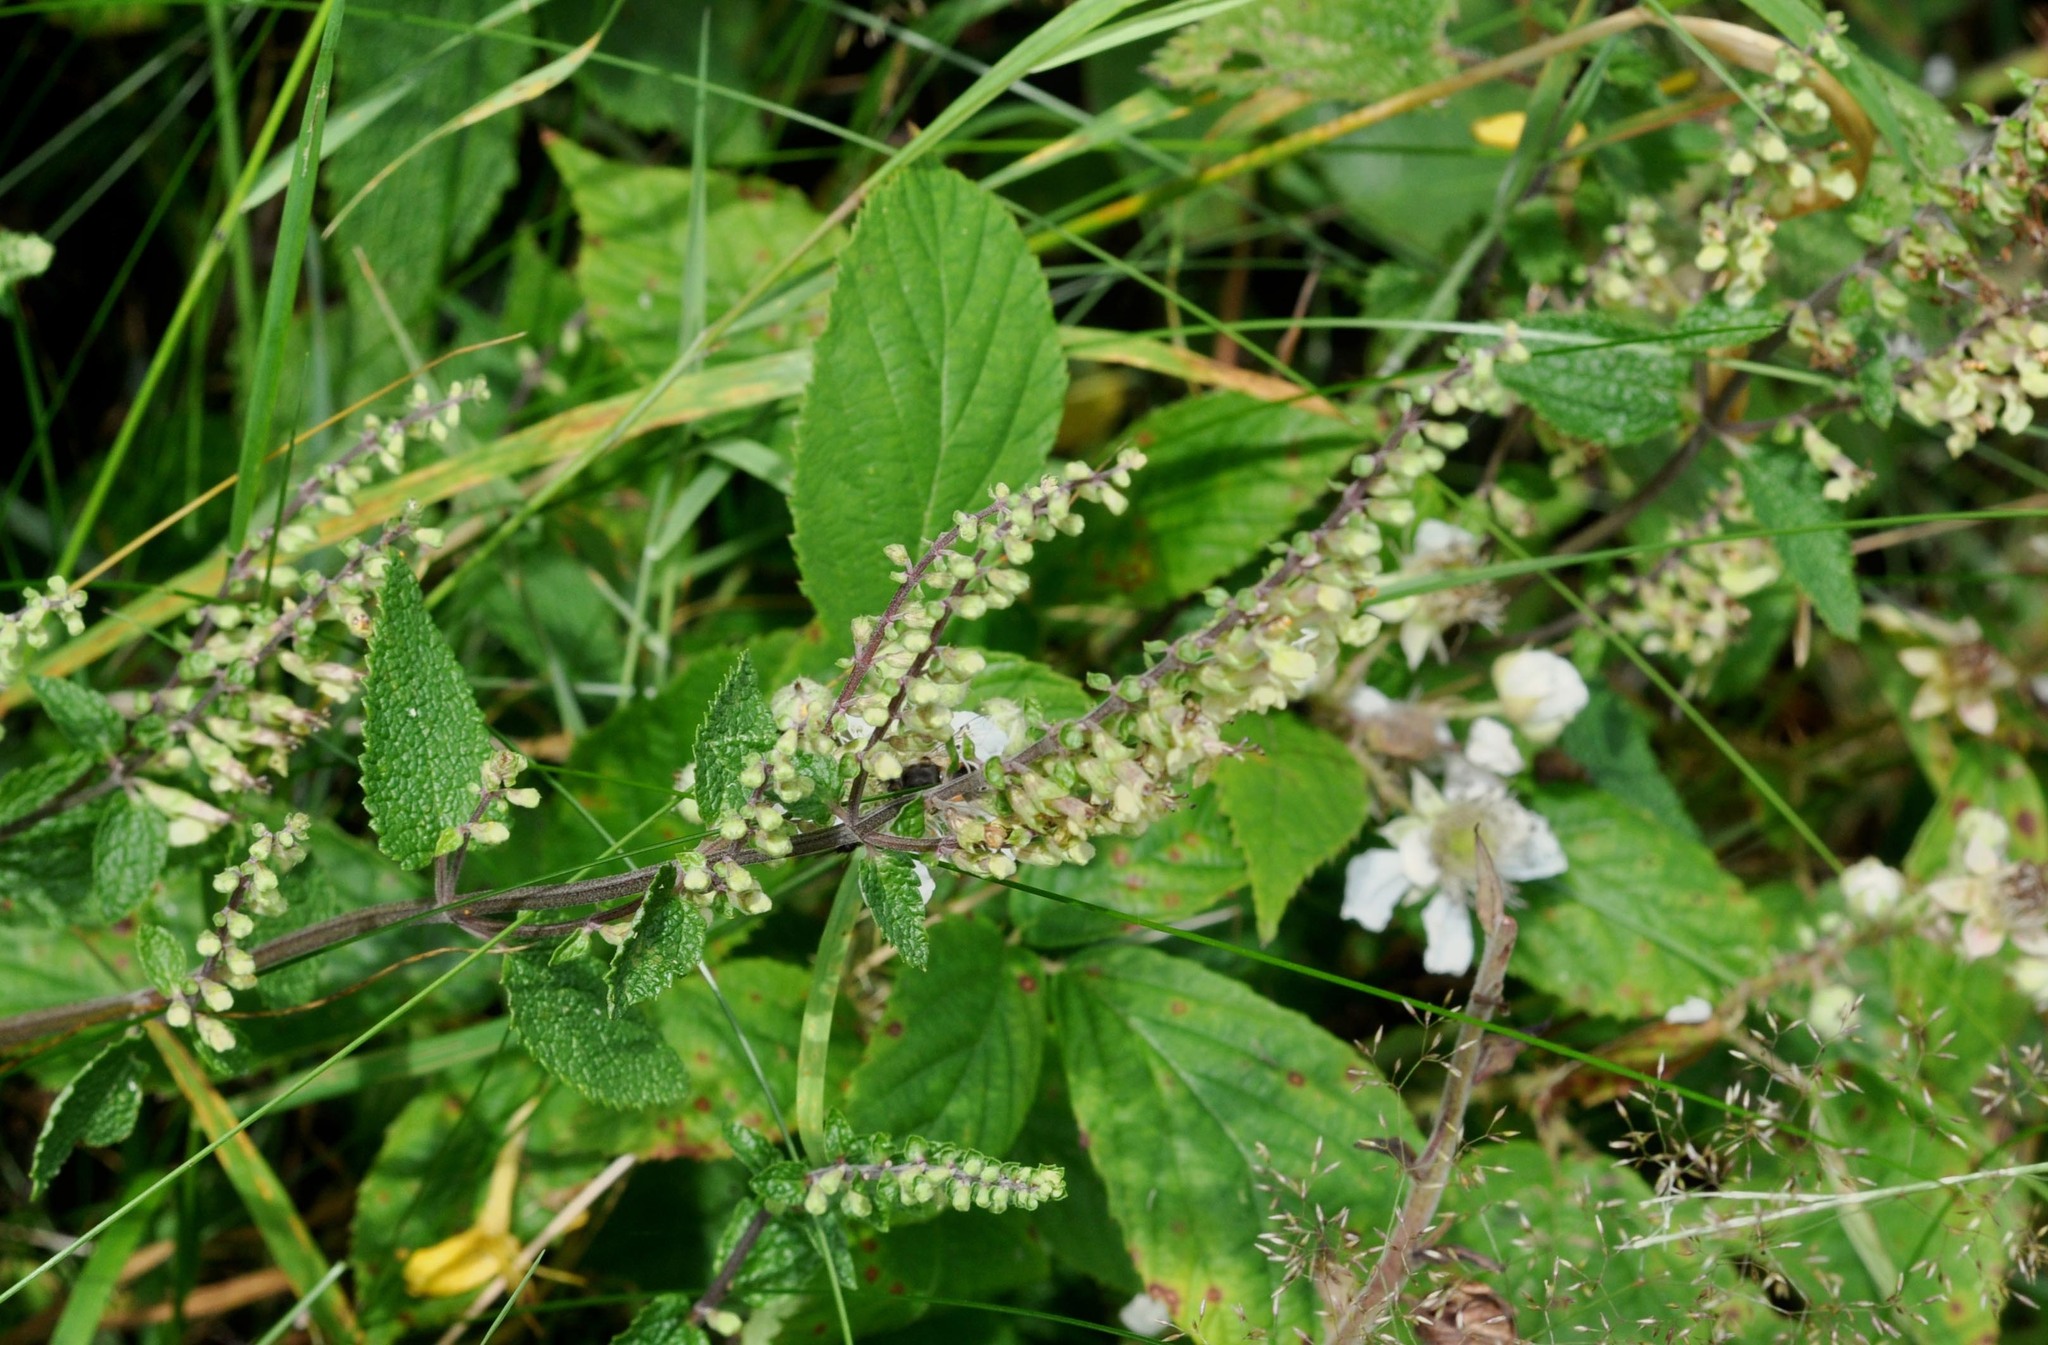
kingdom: Plantae
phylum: Tracheophyta
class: Magnoliopsida
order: Lamiales
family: Lamiaceae
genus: Teucrium
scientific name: Teucrium scorodonia
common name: Woodland germander
